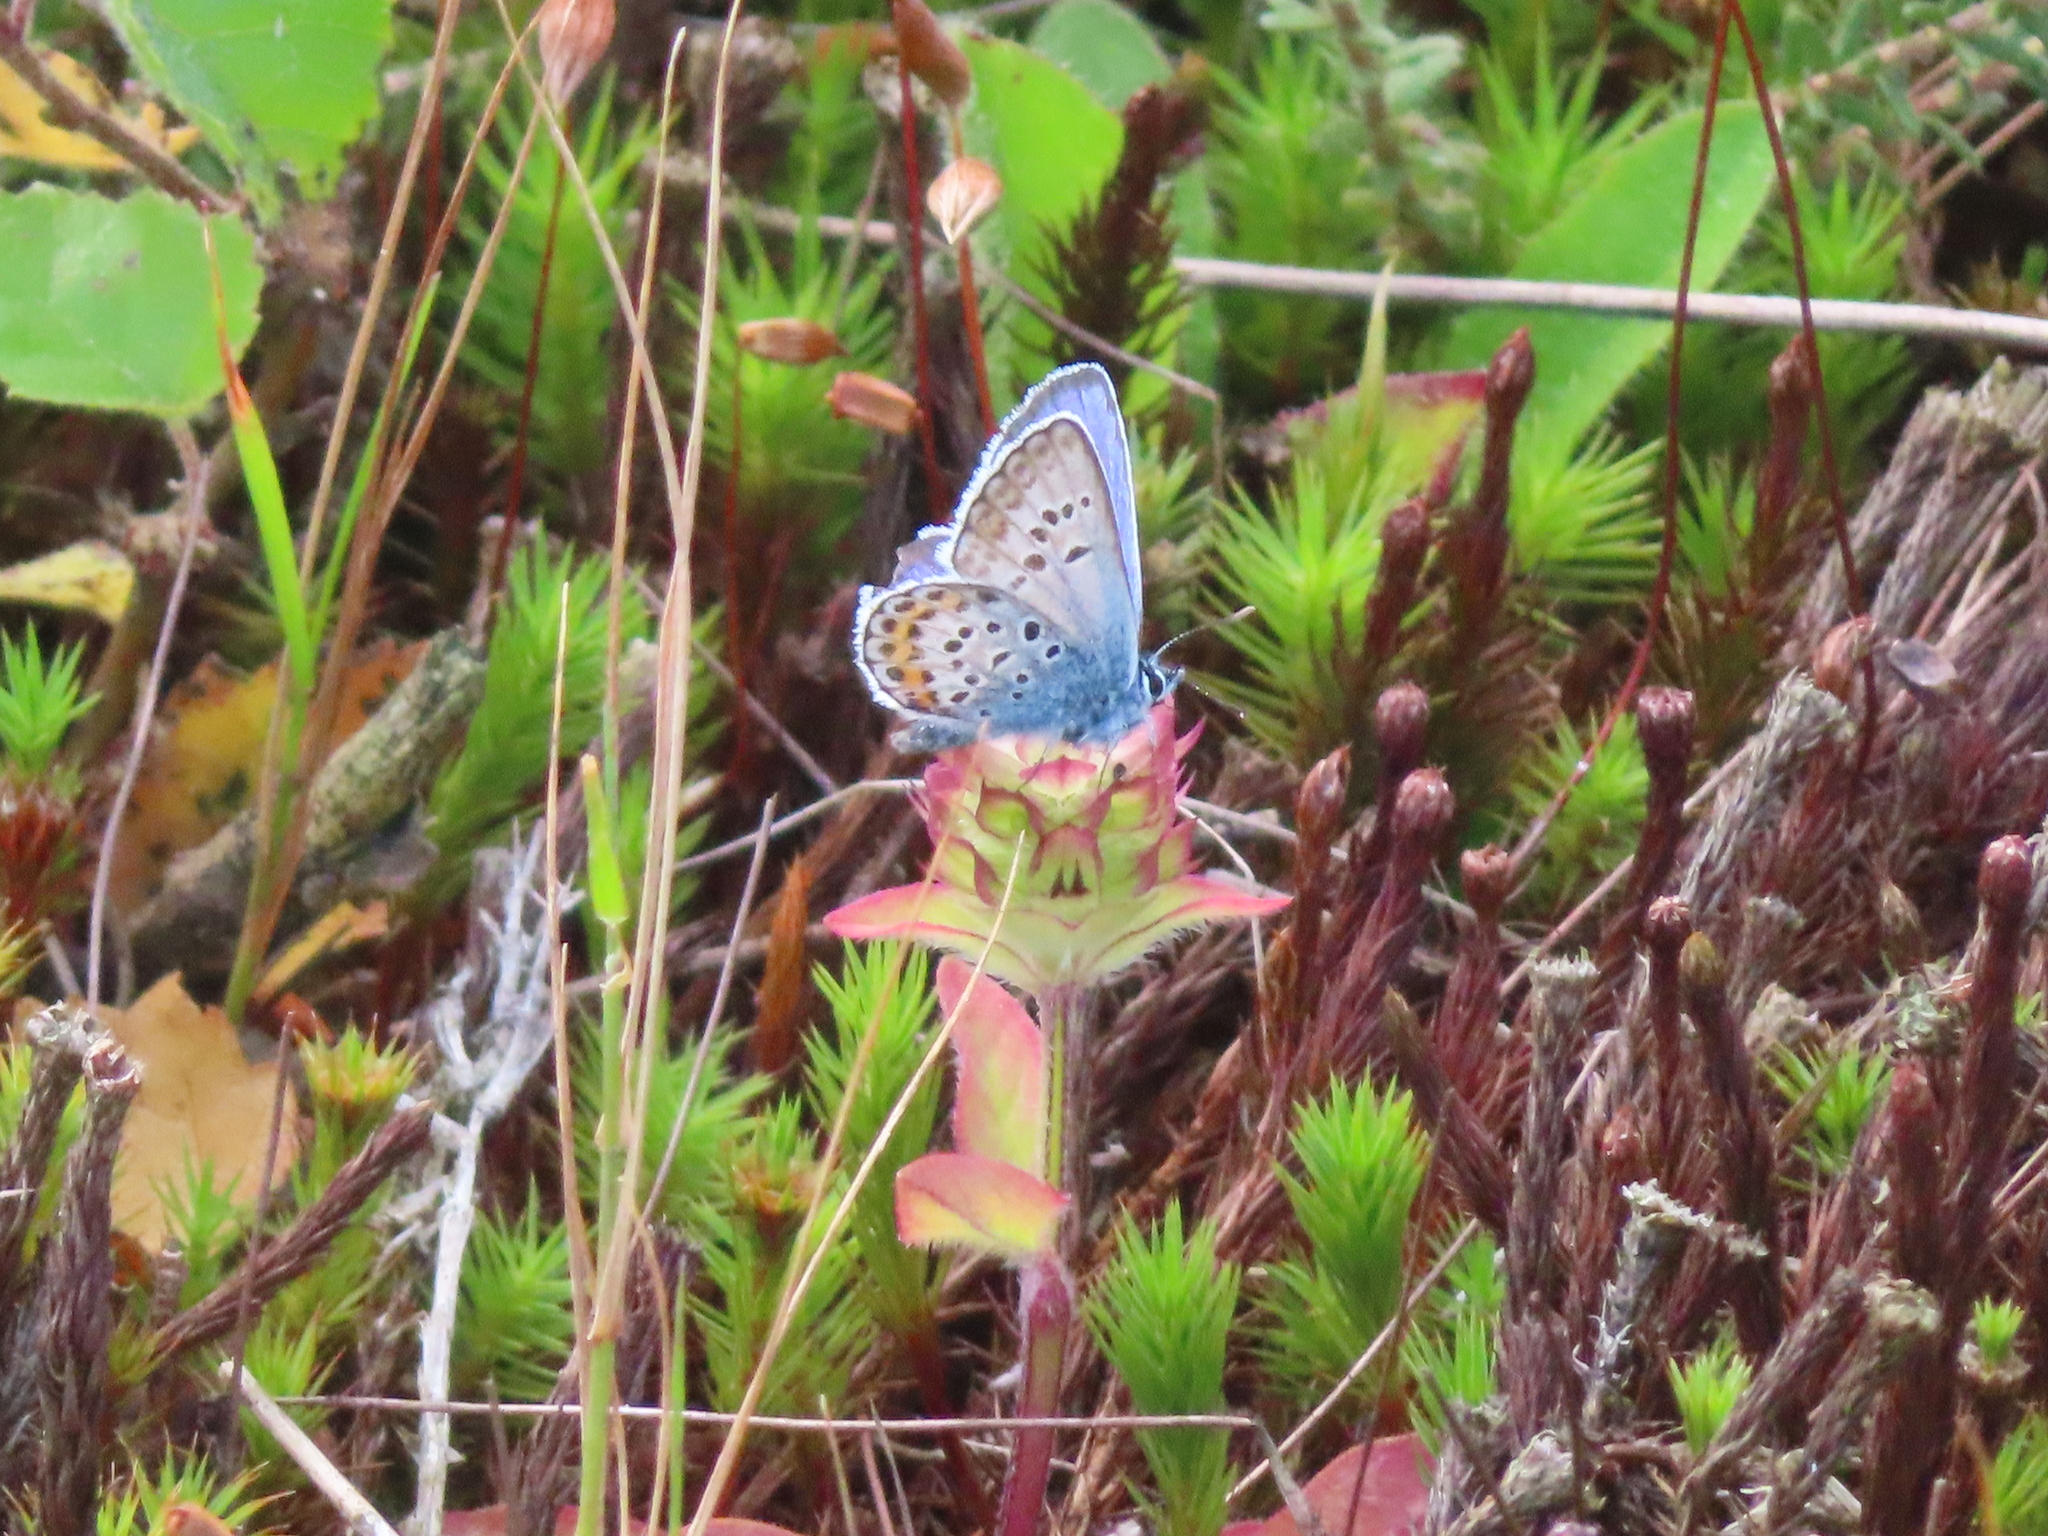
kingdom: Animalia
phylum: Arthropoda
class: Insecta
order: Lepidoptera
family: Lycaenidae
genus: Plebejus
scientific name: Plebejus argus
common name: Silver-studded blue
